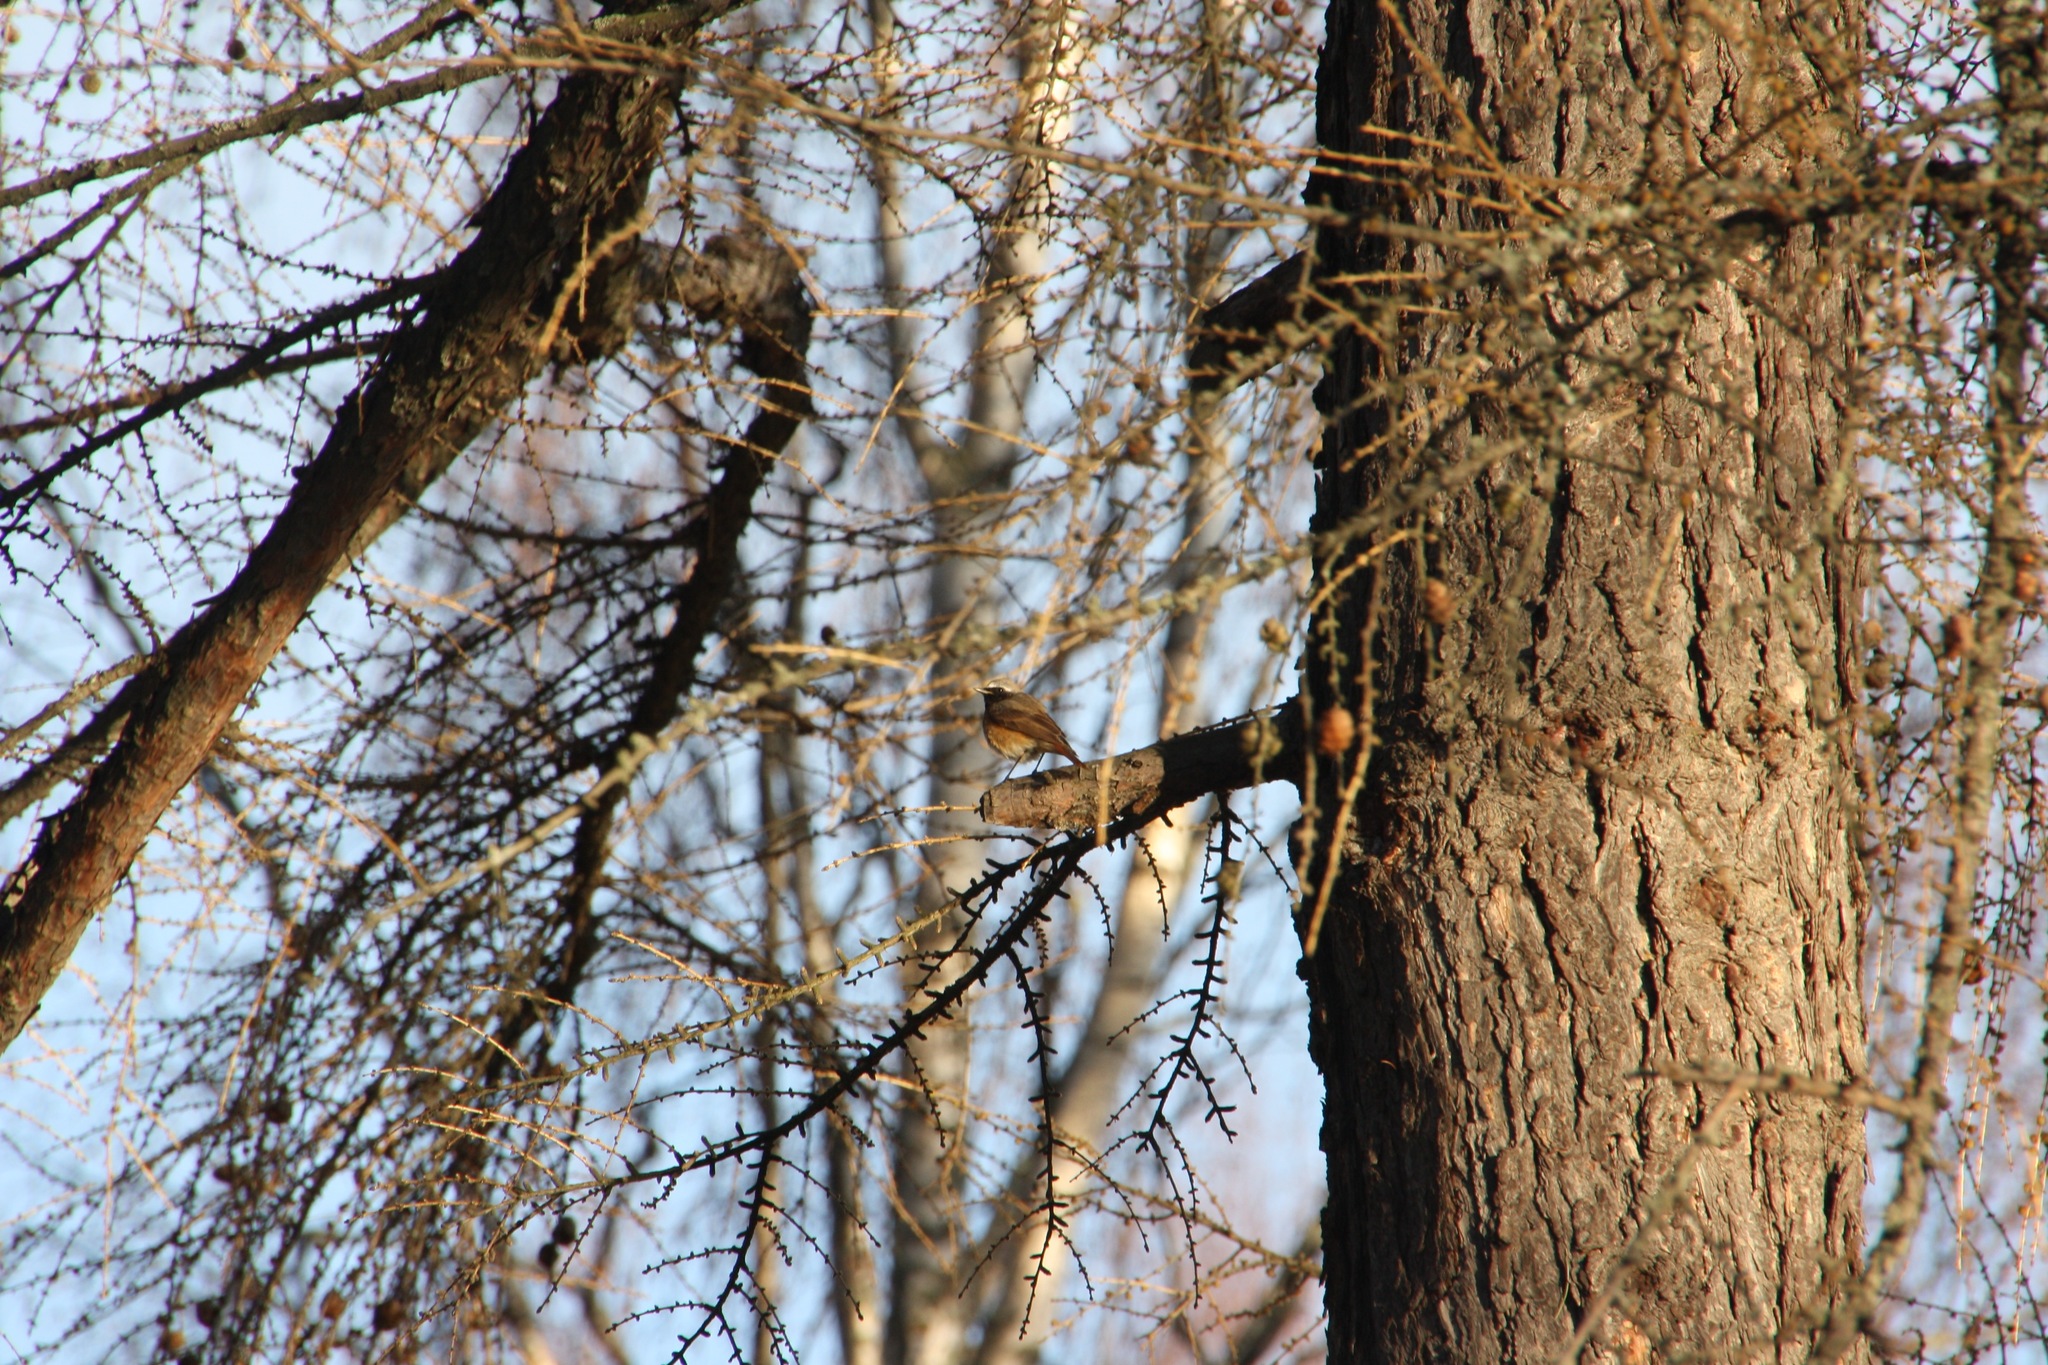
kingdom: Animalia
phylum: Chordata
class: Aves
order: Passeriformes
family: Muscicapidae
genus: Phoenicurus
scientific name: Phoenicurus phoenicurus
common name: Common redstart
